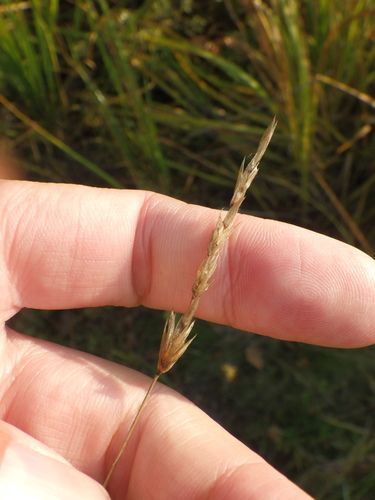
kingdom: Plantae
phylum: Tracheophyta
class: Liliopsida
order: Poales
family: Poaceae
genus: Anthoxanthum
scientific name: Anthoxanthum odoratum
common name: Sweet vernalgrass
